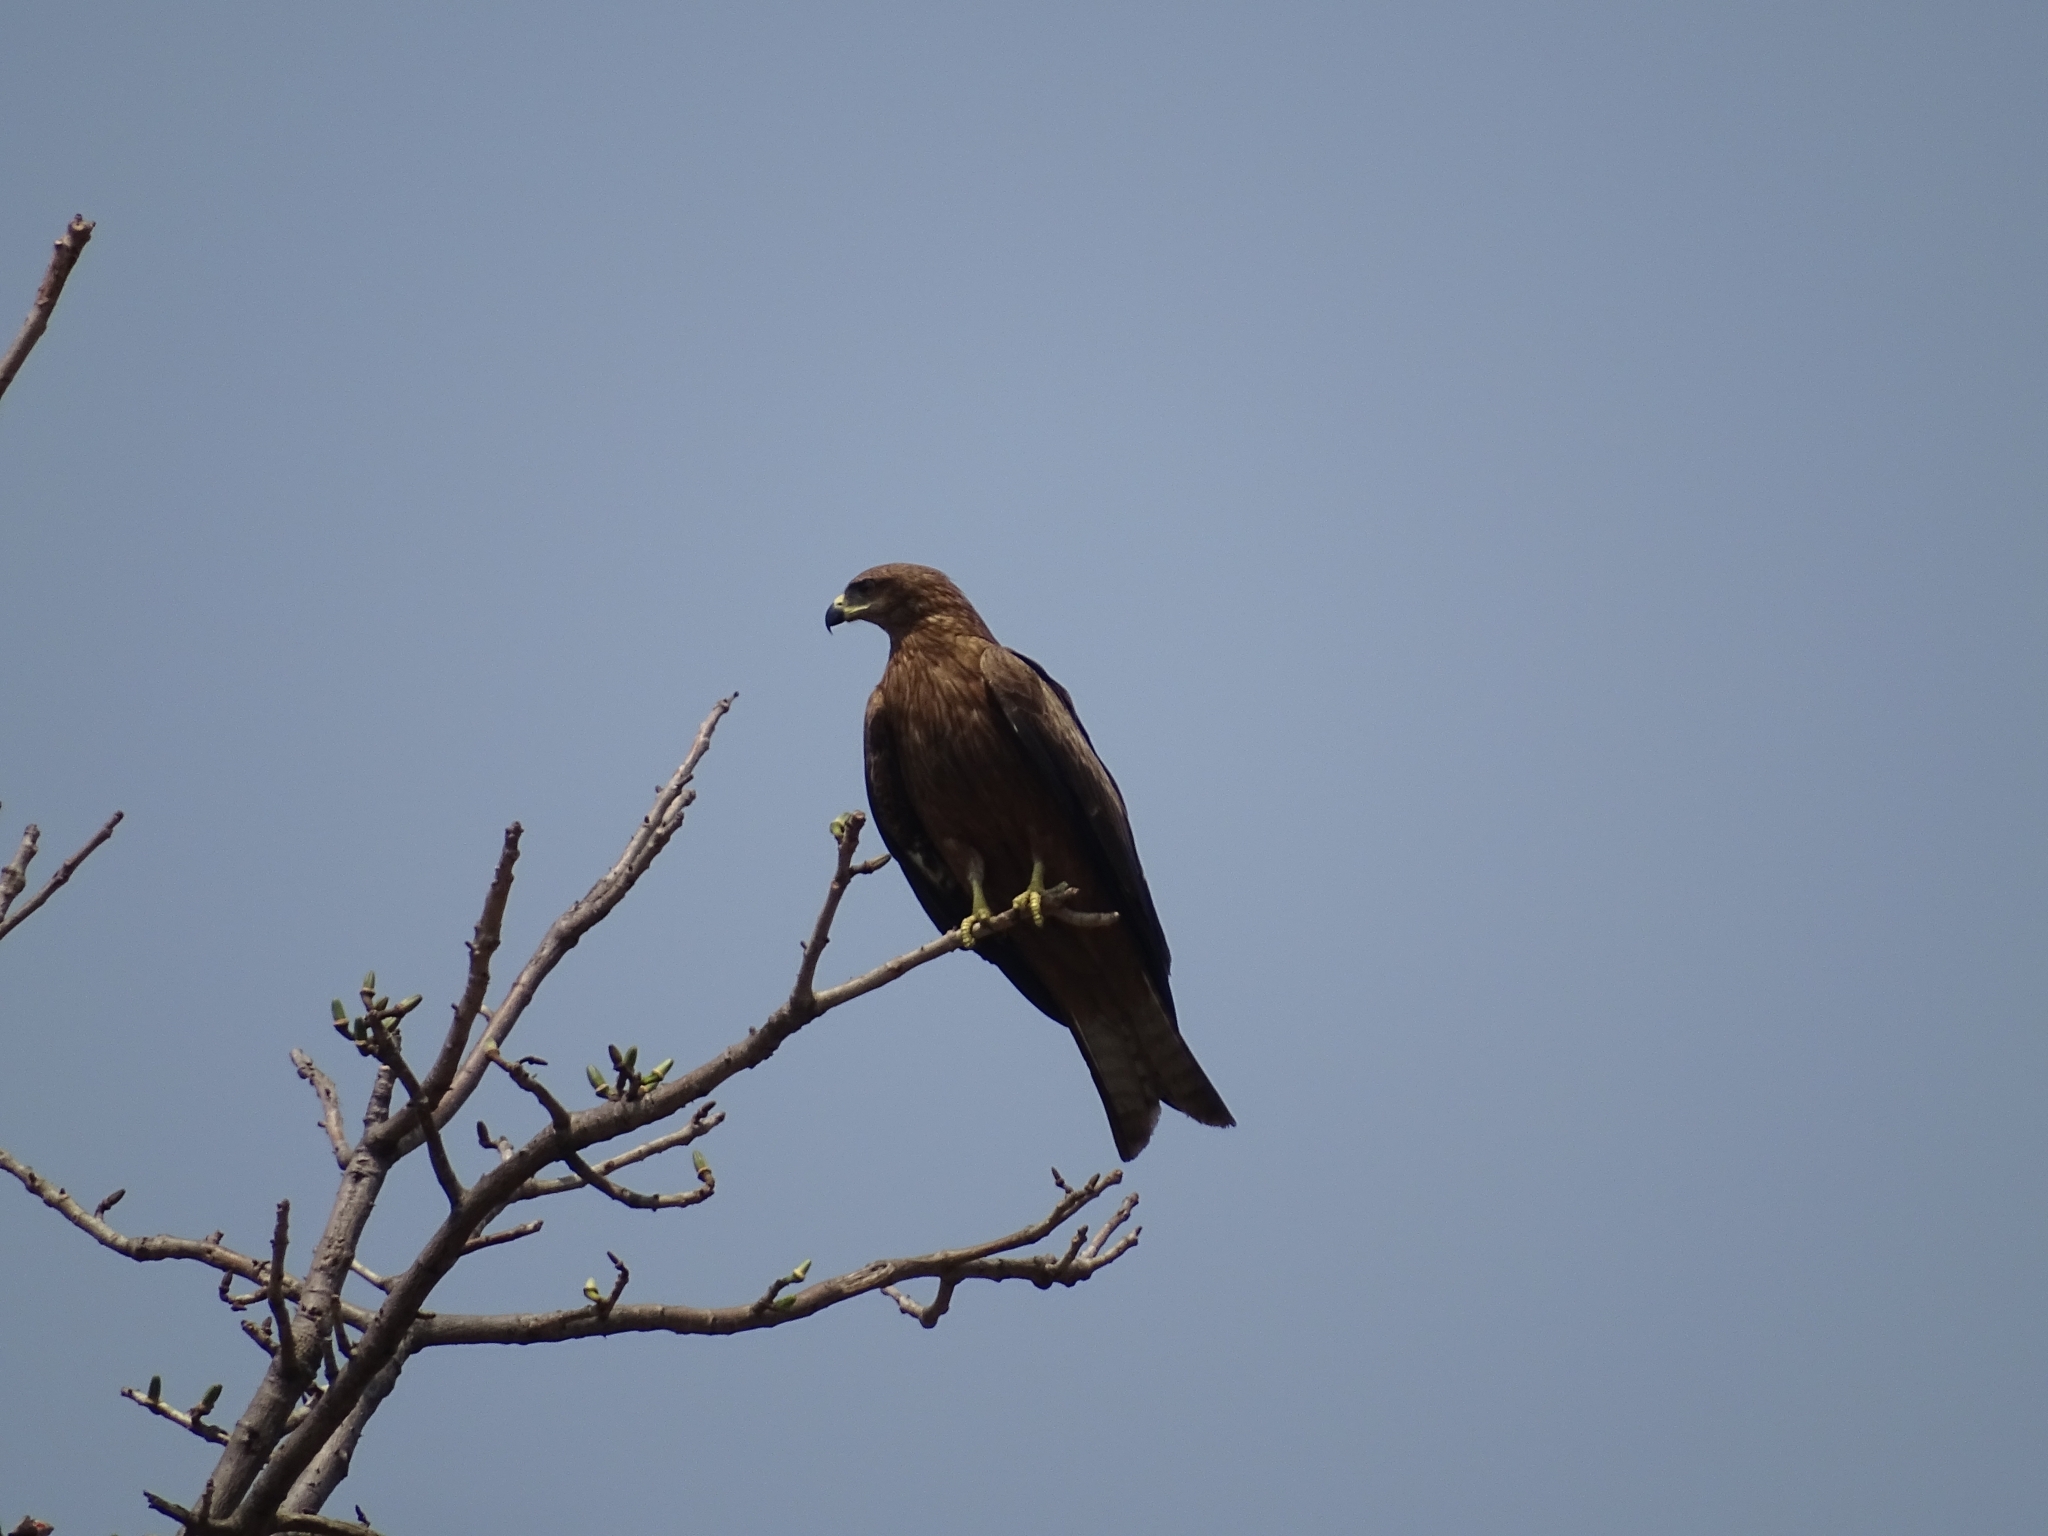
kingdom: Animalia
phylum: Chordata
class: Aves
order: Accipitriformes
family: Accipitridae
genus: Milvus
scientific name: Milvus migrans
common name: Black kite
